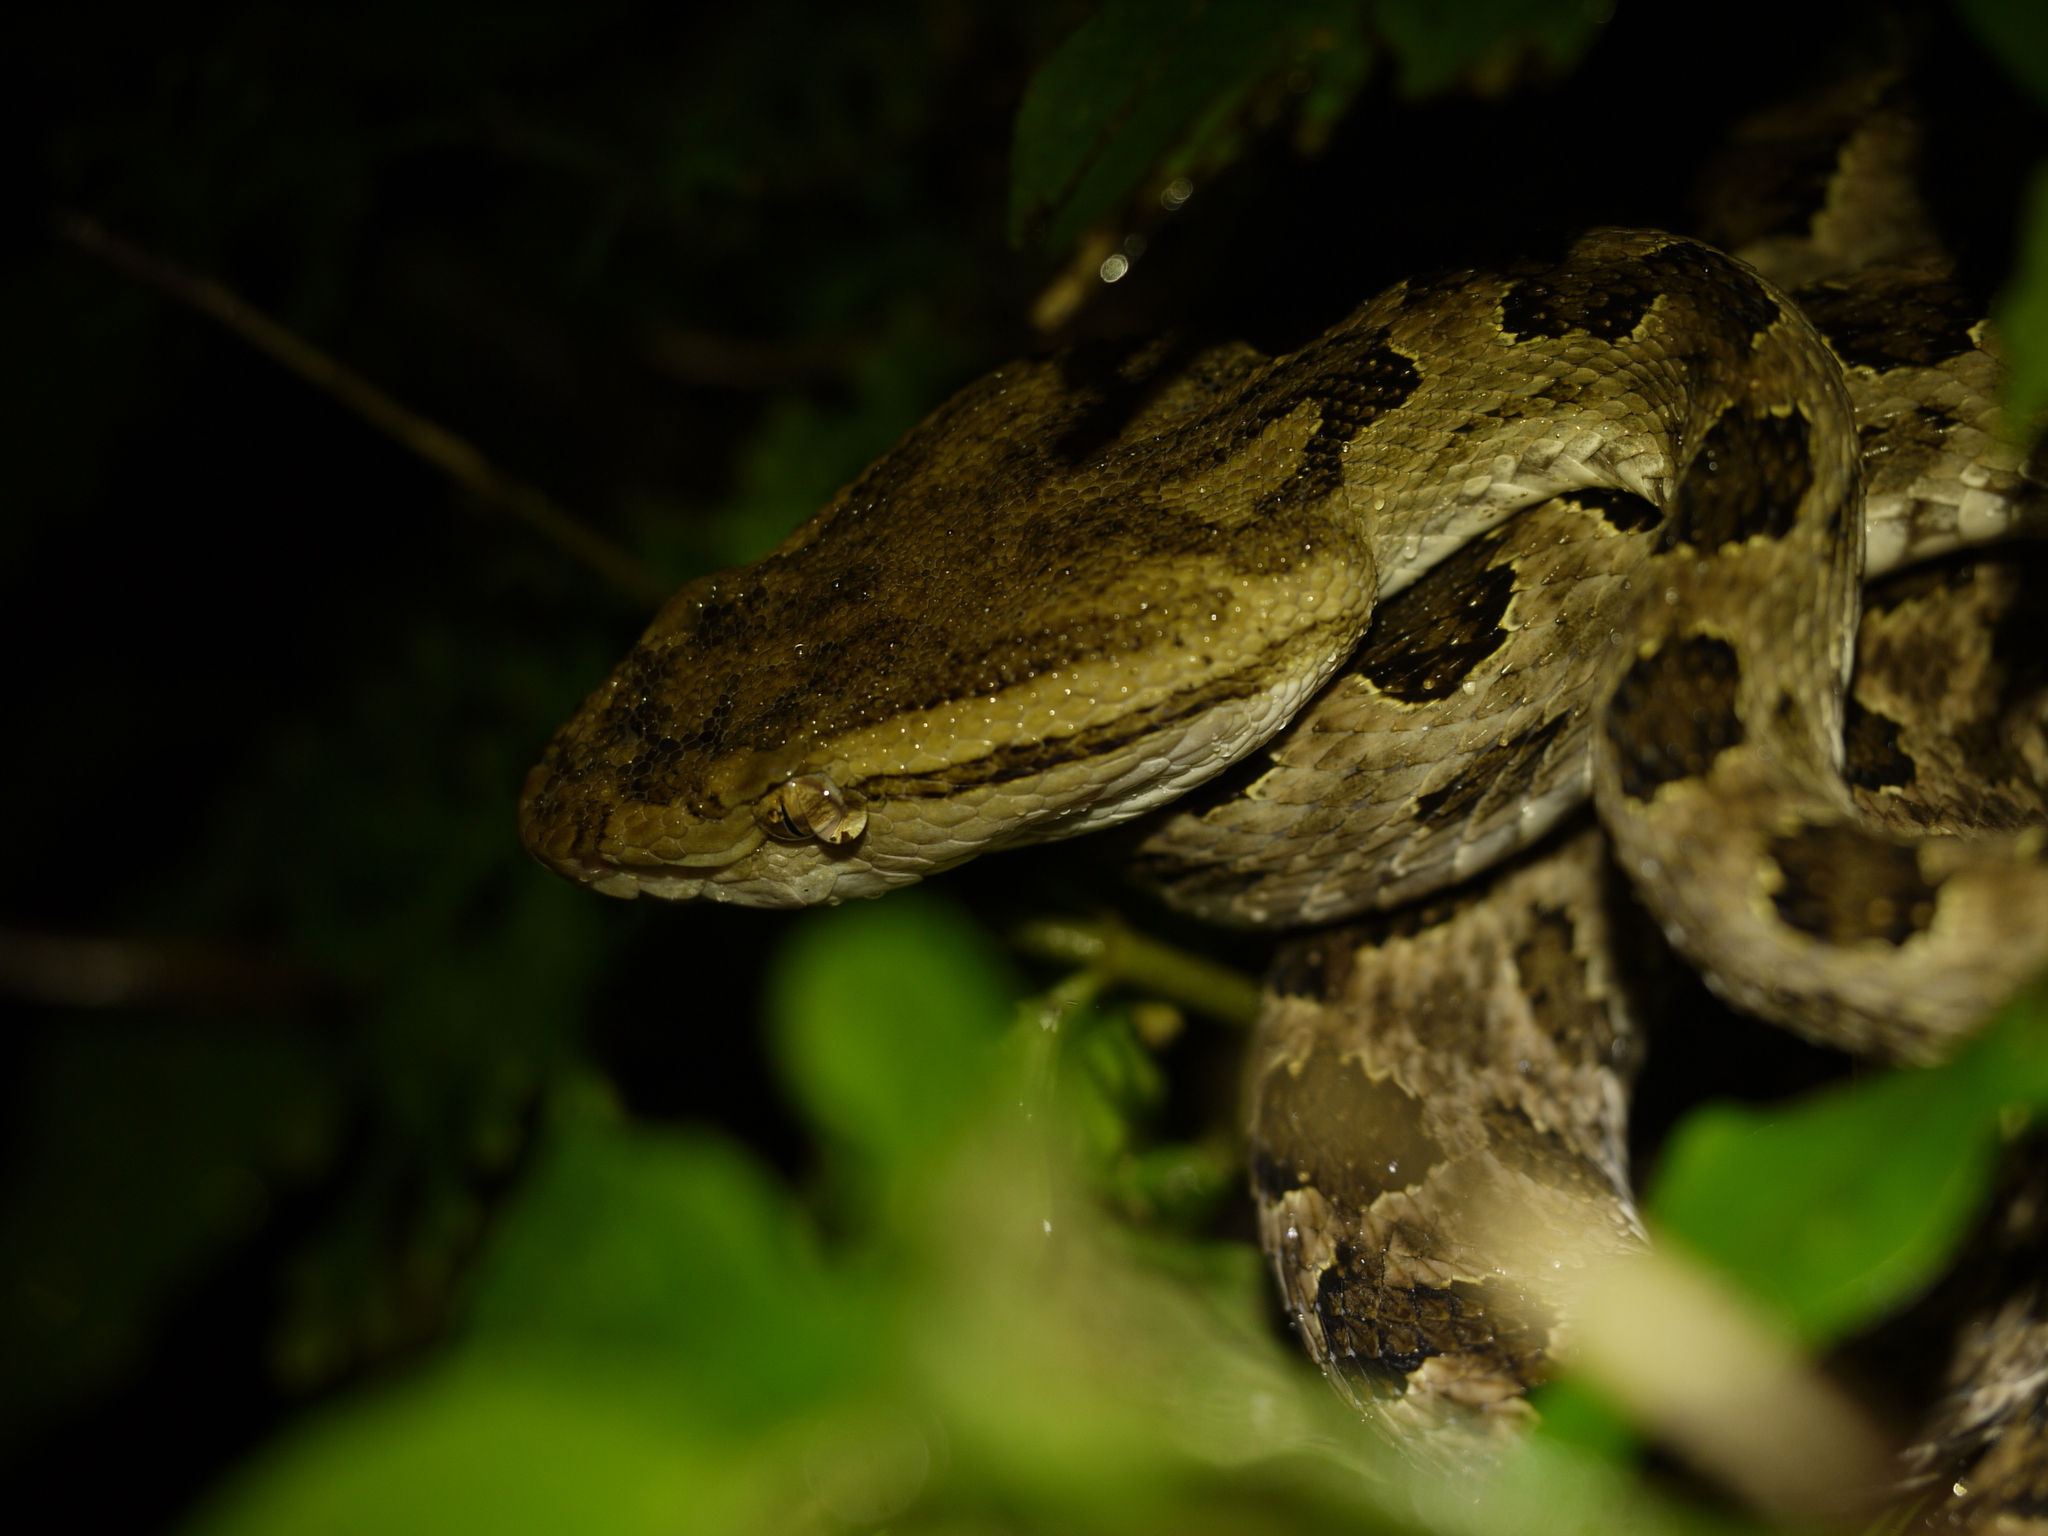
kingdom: Animalia
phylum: Chordata
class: Squamata
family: Viperidae
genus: Protobothrops
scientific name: Protobothrops mucrosquamatus
